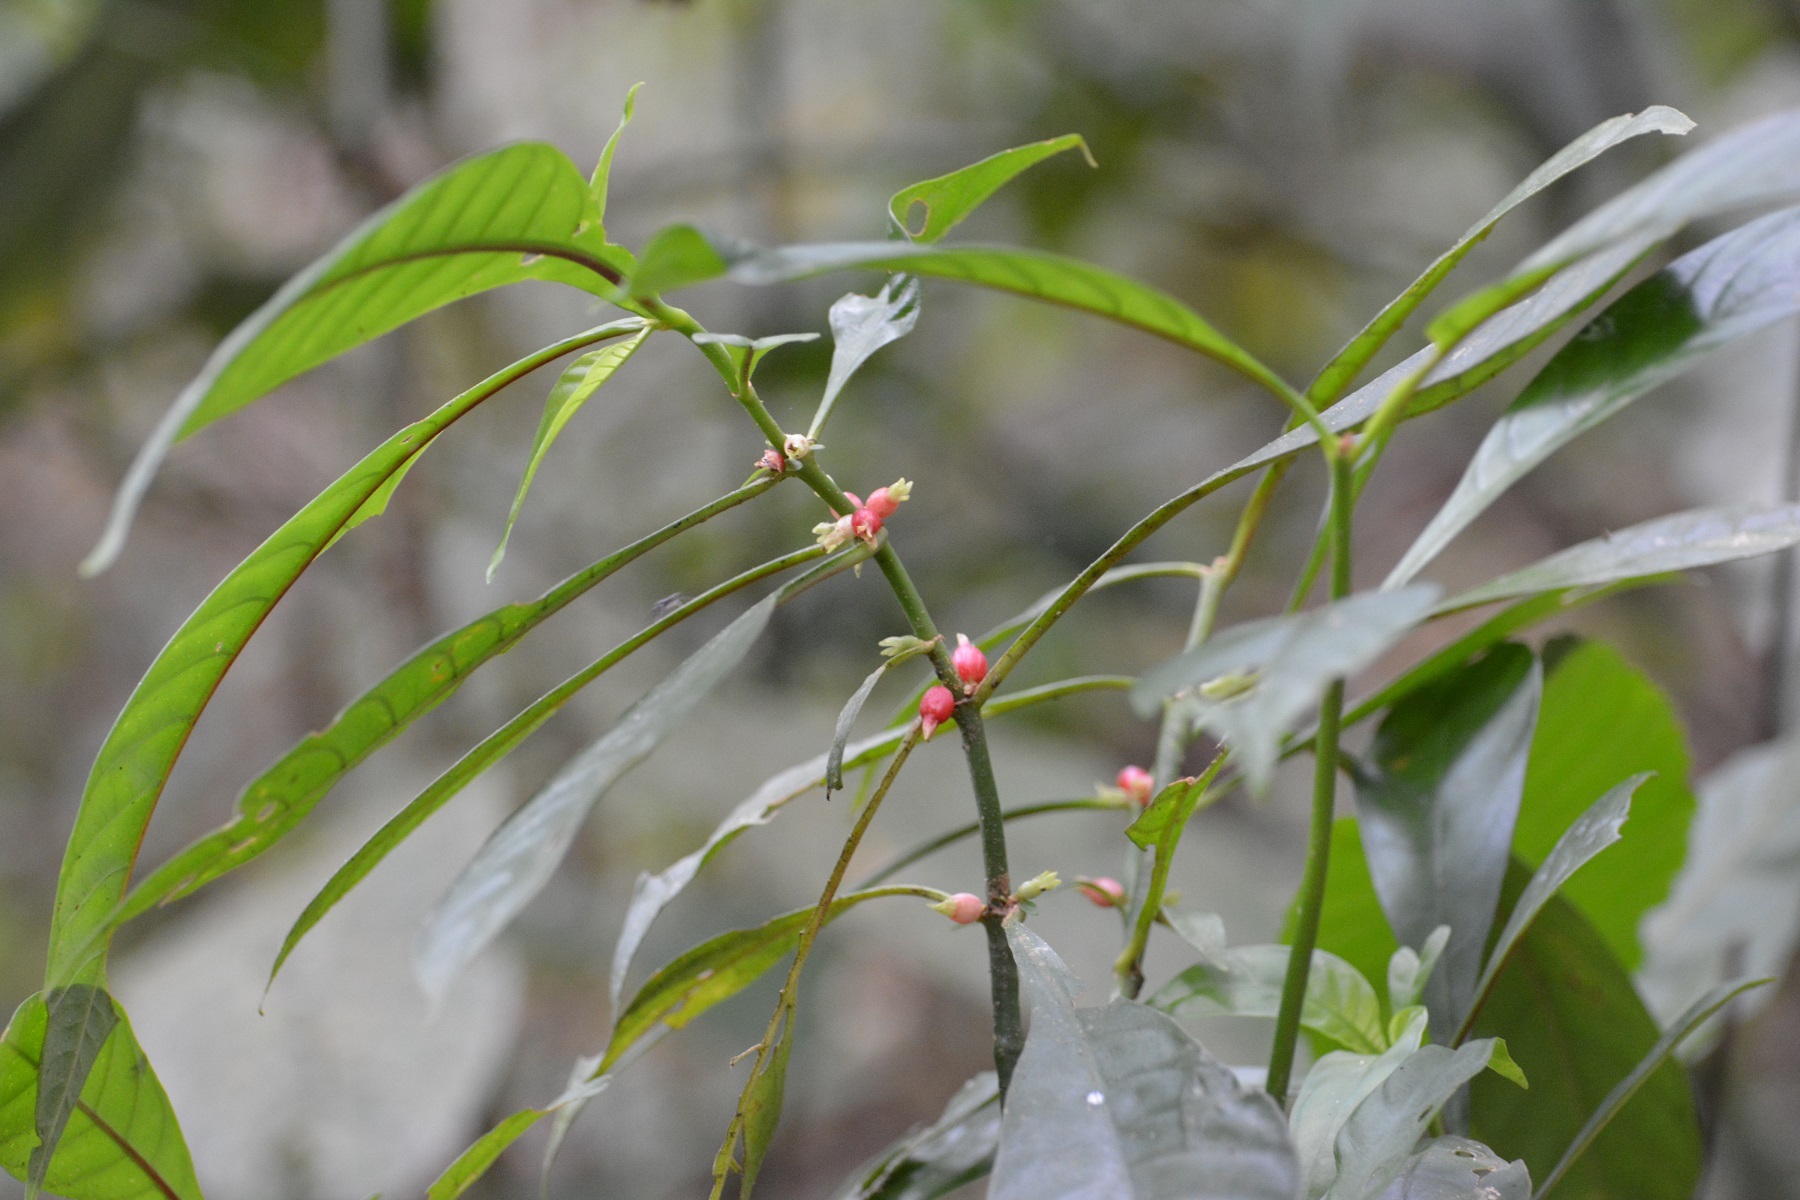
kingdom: Plantae
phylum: Tracheophyta
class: Magnoliopsida
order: Gentianales
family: Rubiaceae
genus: Hoffmannia
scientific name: Hoffmannia nicotianifolia
